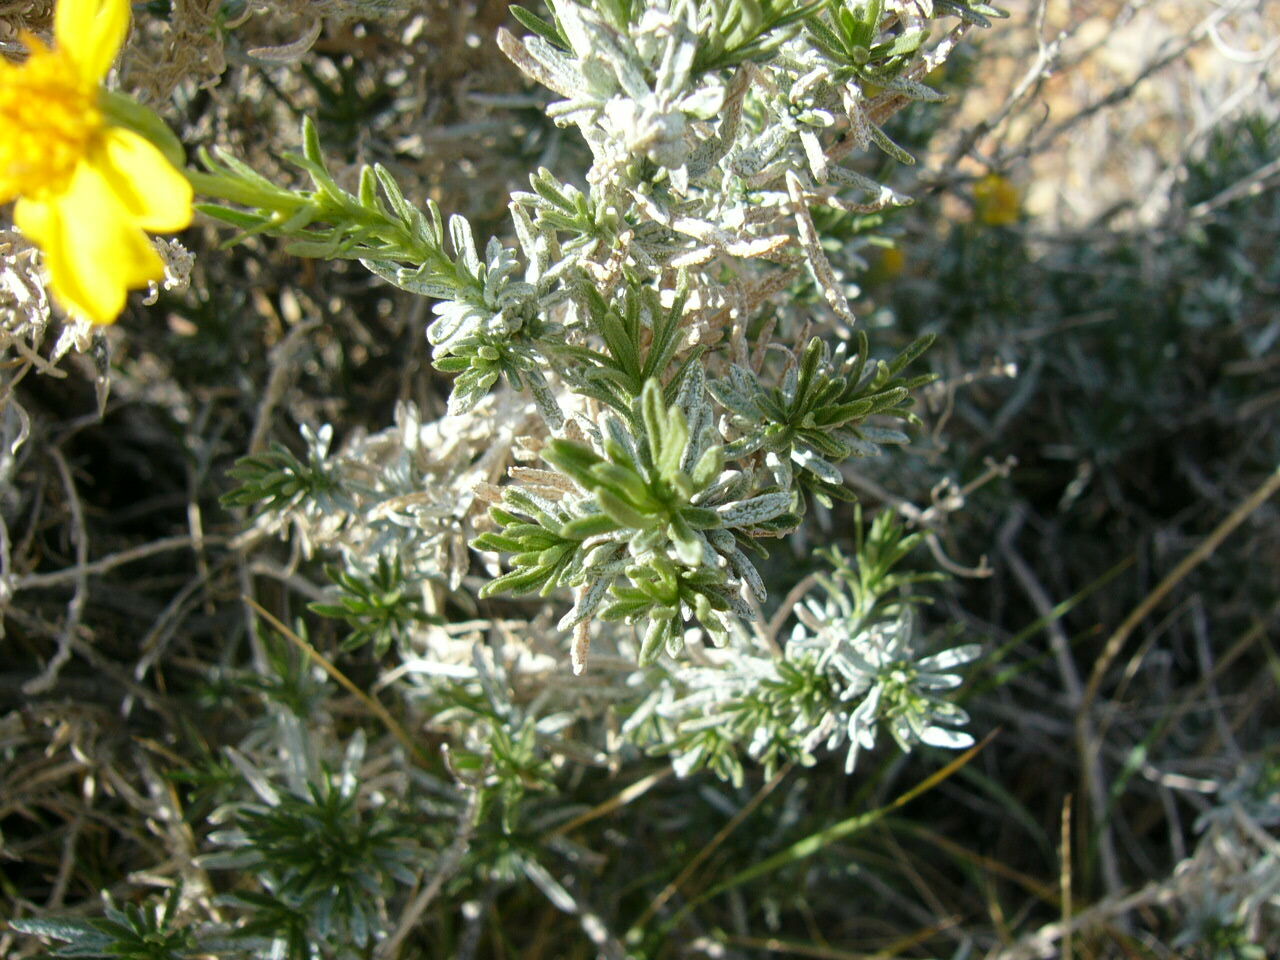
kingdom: Plantae
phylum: Tracheophyta
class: Magnoliopsida
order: Asterales
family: Asteraceae
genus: Ericameria
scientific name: Ericameria linearifolia
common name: Interior goldenbush
